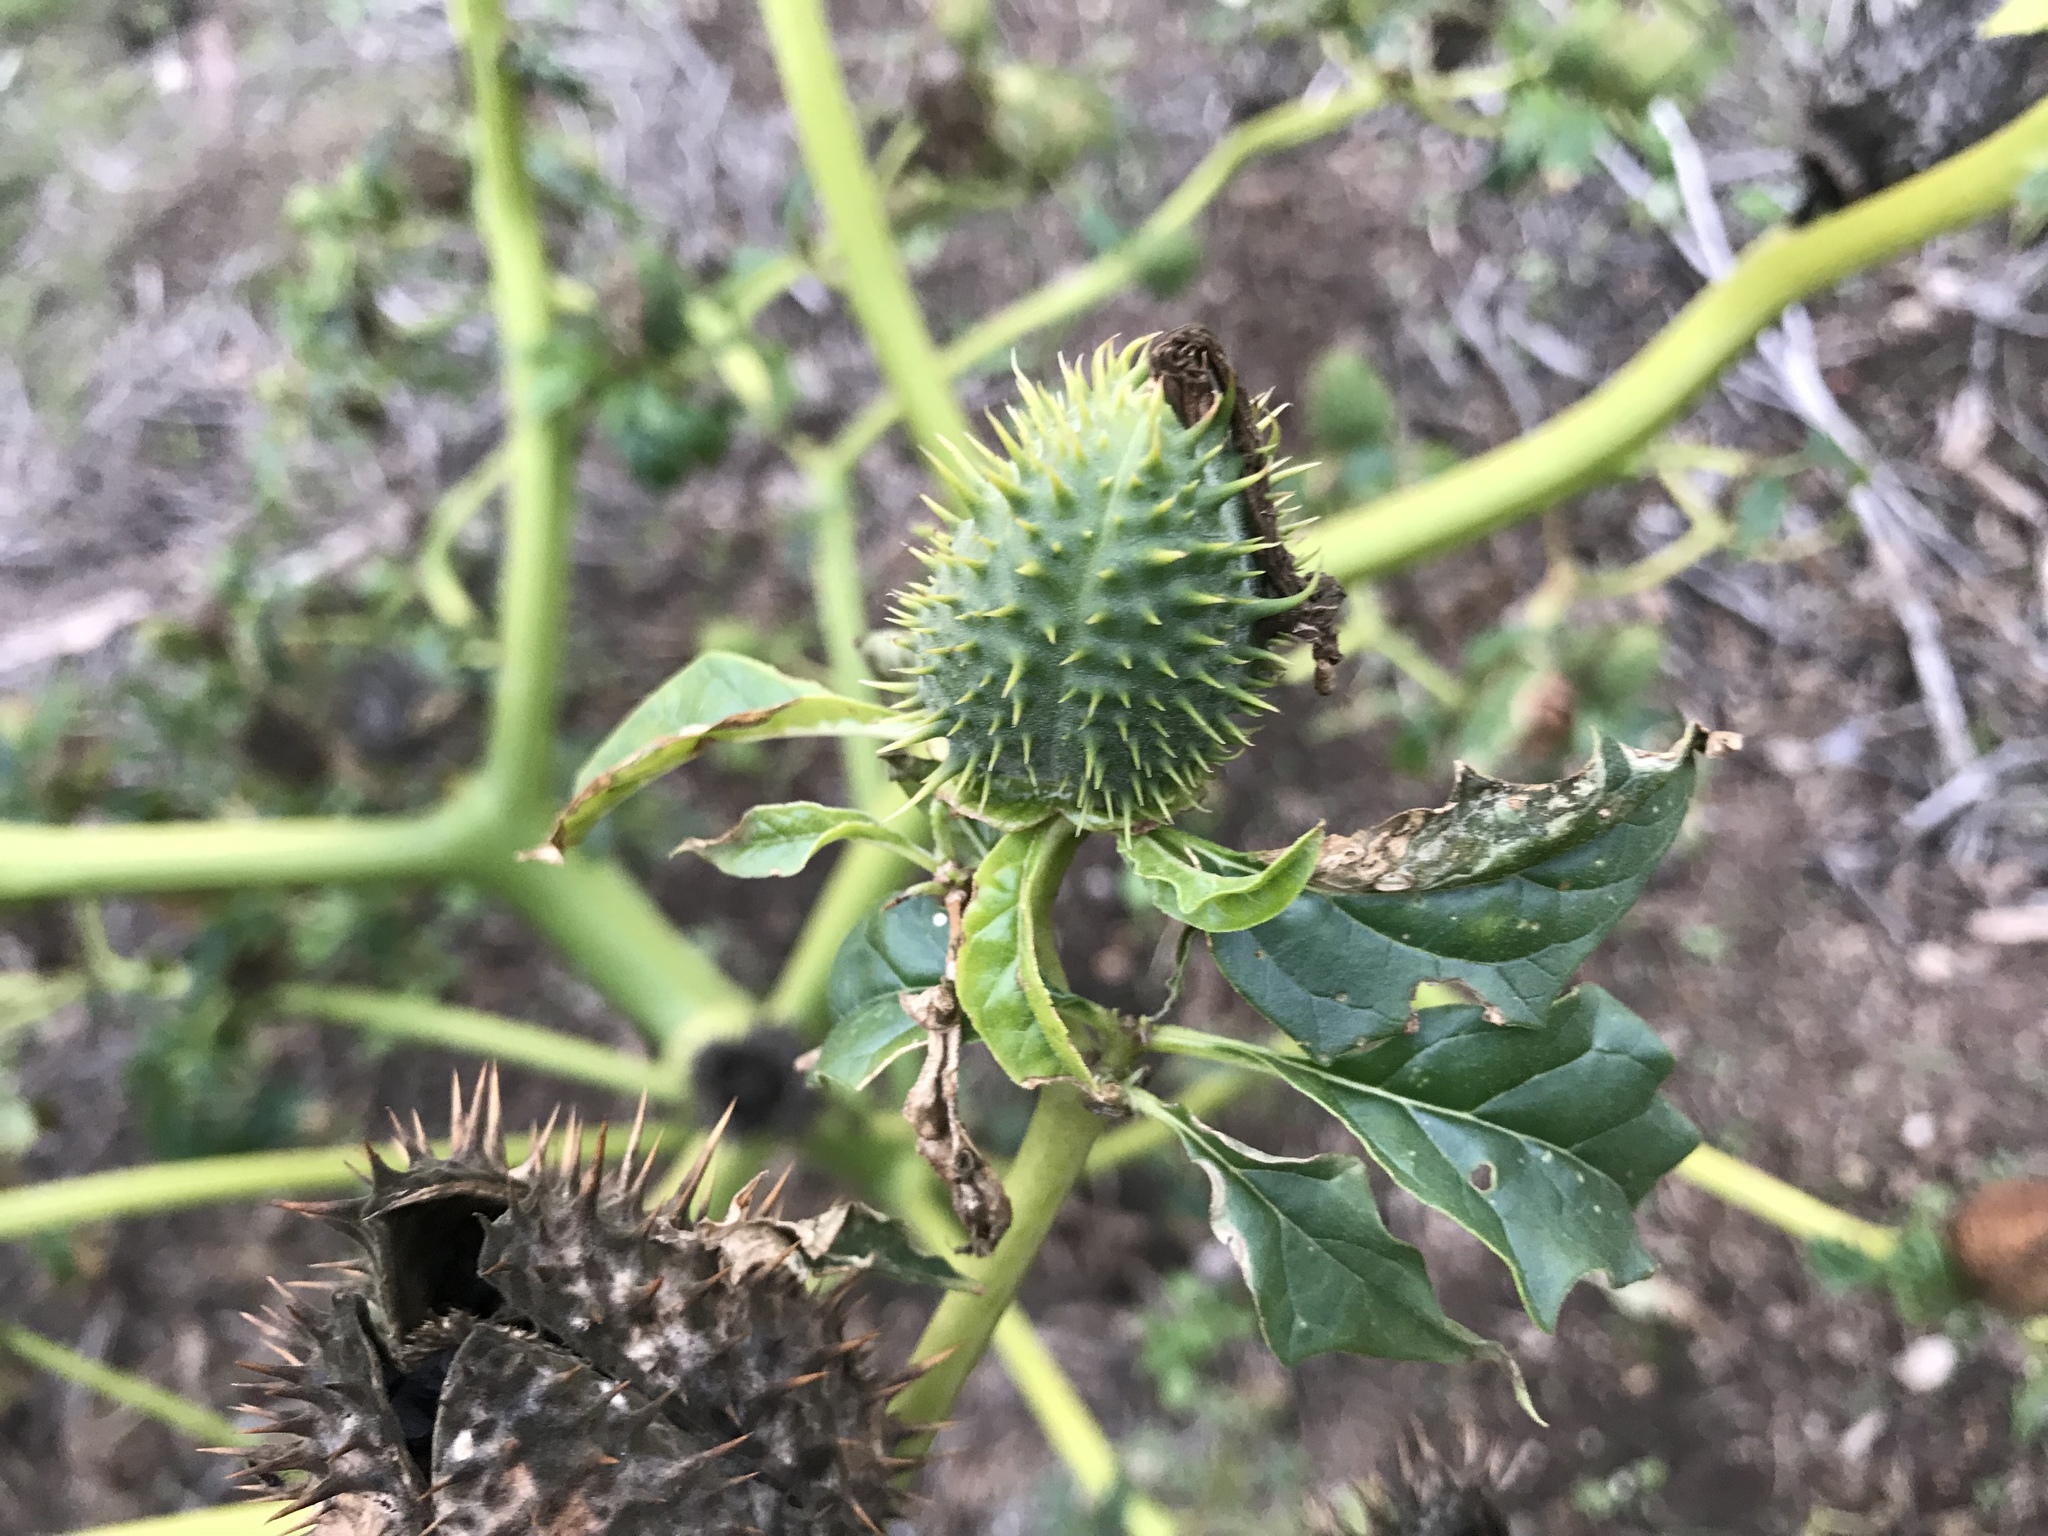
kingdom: Plantae
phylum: Tracheophyta
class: Magnoliopsida
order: Solanales
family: Solanaceae
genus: Datura
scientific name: Datura stramonium
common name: Thorn-apple
